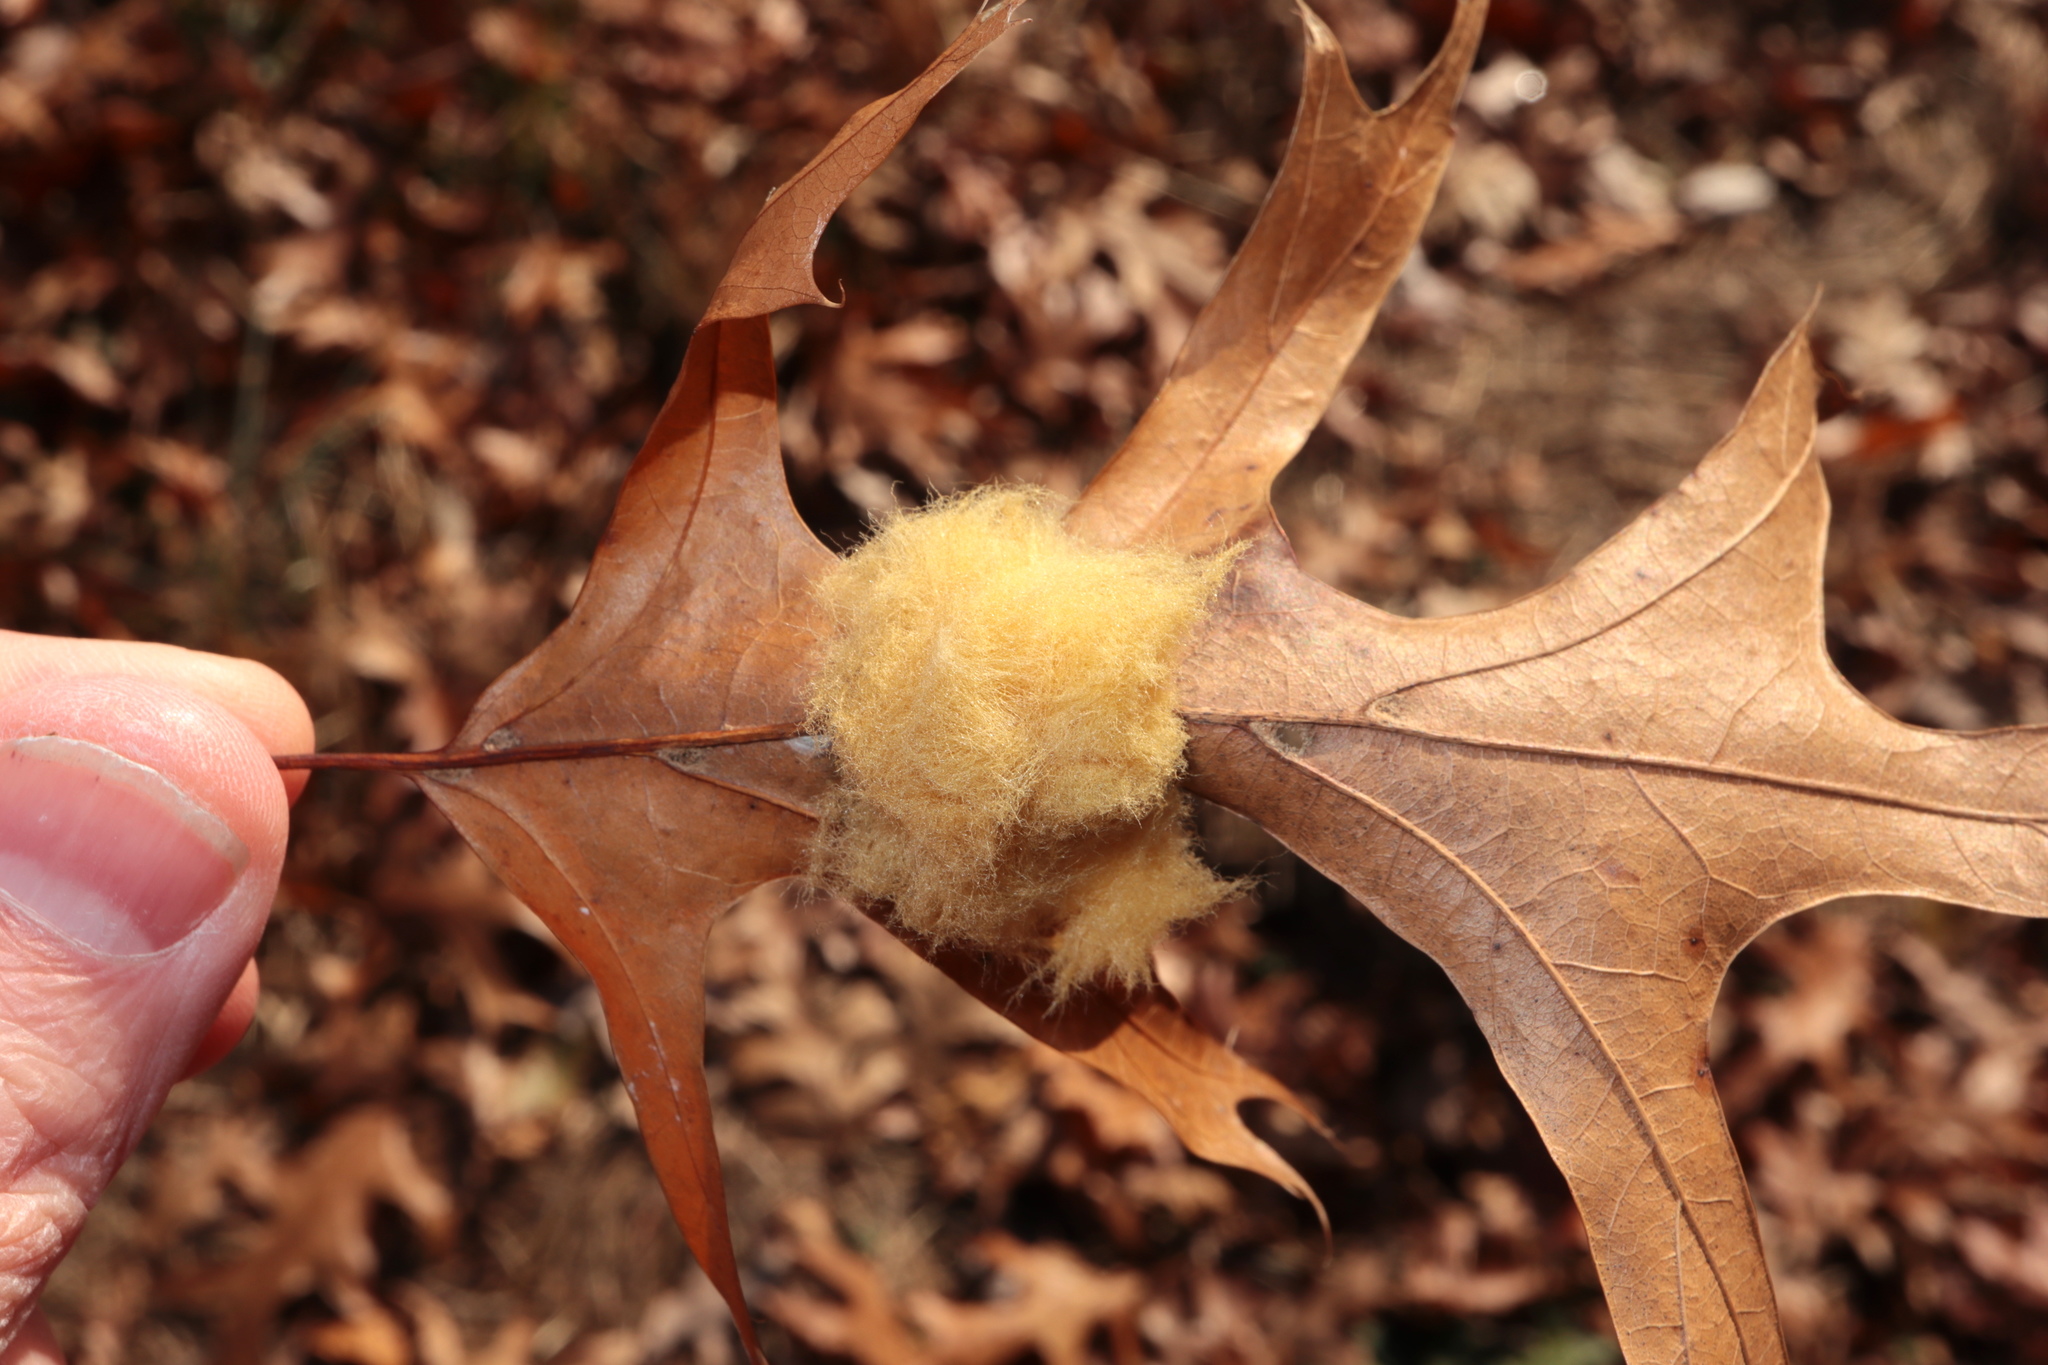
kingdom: Animalia
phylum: Arthropoda
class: Insecta
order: Hymenoptera
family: Cynipidae
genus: Callirhytis
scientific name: Callirhytis
